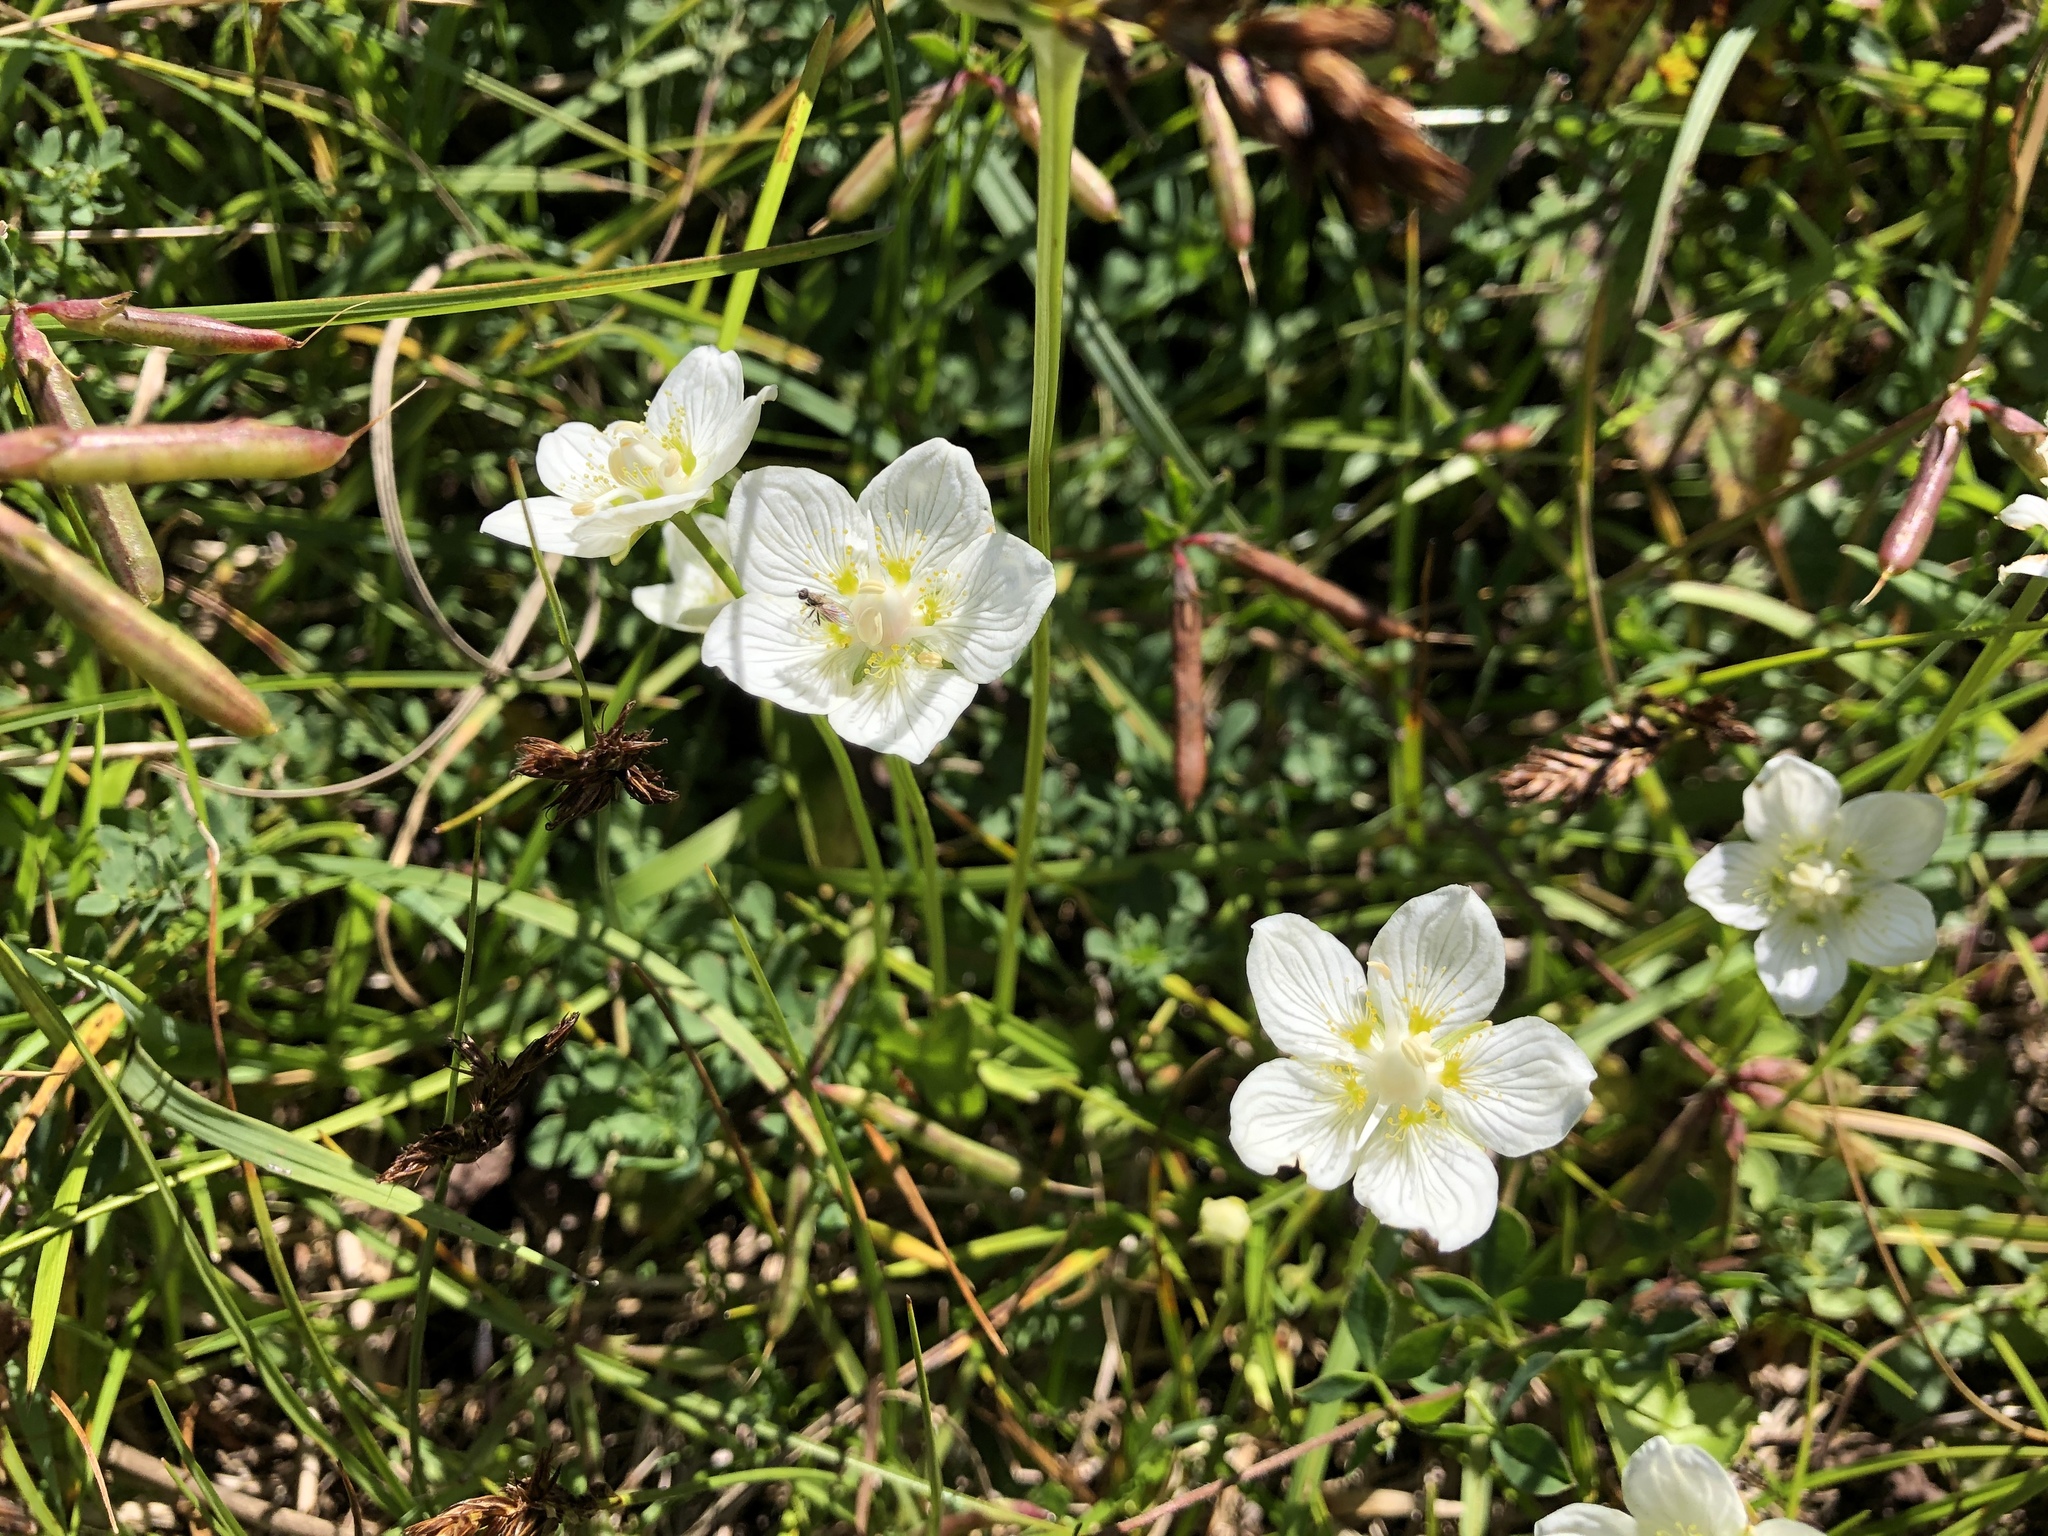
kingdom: Plantae
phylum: Tracheophyta
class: Magnoliopsida
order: Celastrales
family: Parnassiaceae
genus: Parnassia
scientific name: Parnassia palustris
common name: Grass-of-parnassus
